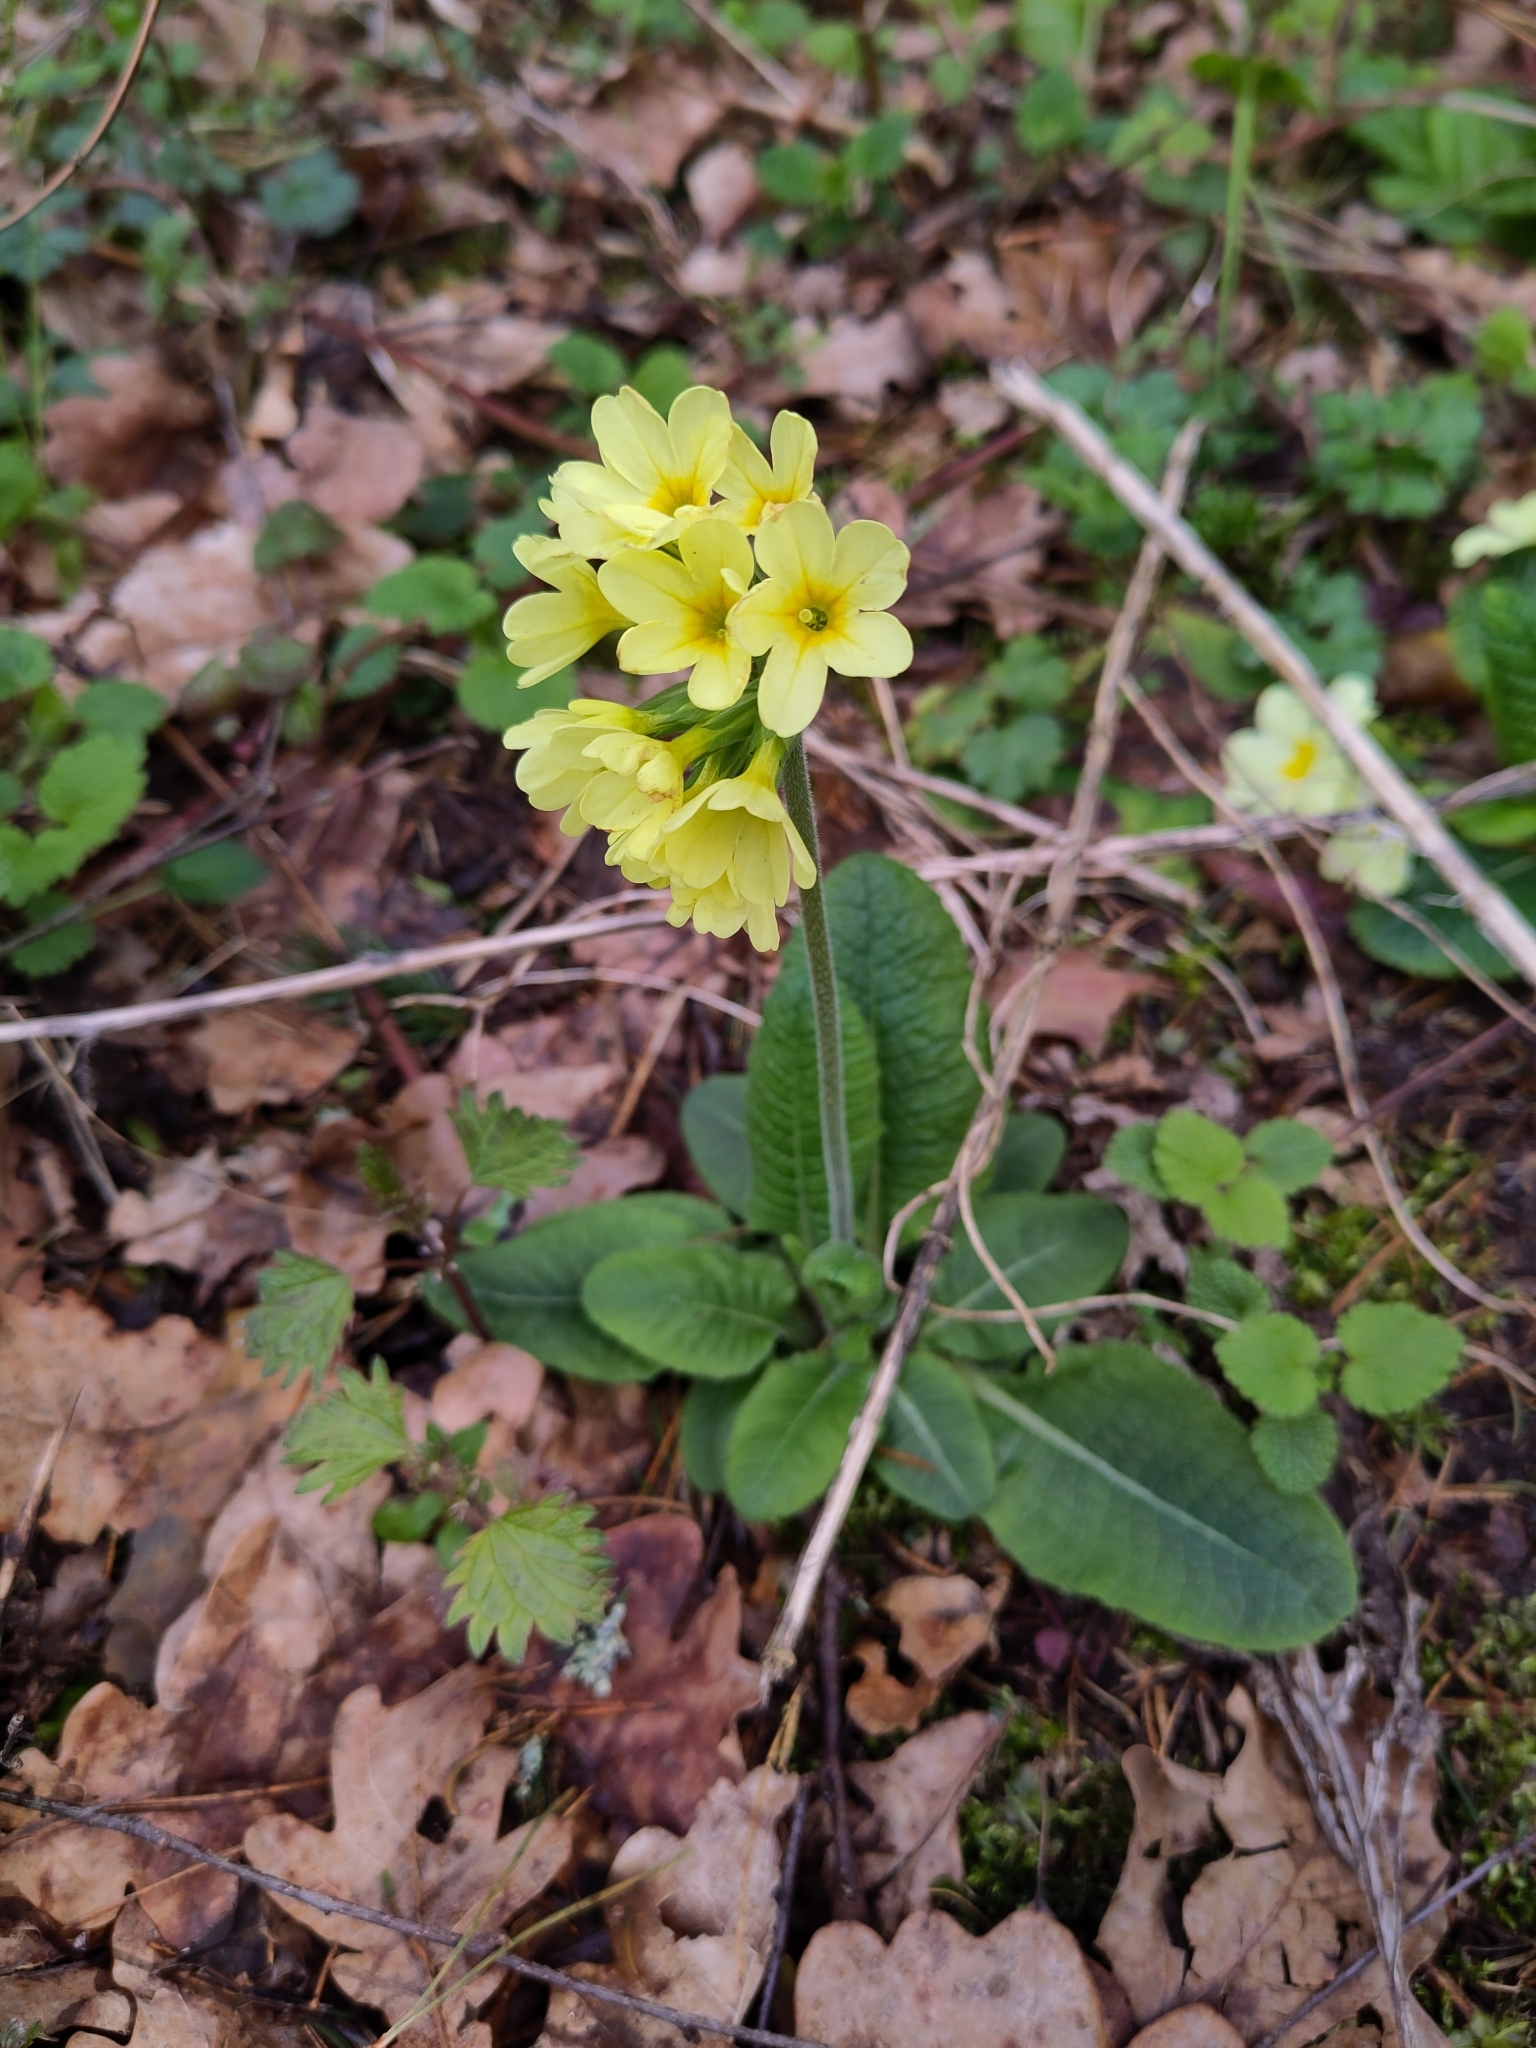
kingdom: Plantae
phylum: Tracheophyta
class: Magnoliopsida
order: Ericales
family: Primulaceae
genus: Primula
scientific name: Primula elatior
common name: Oxlip
